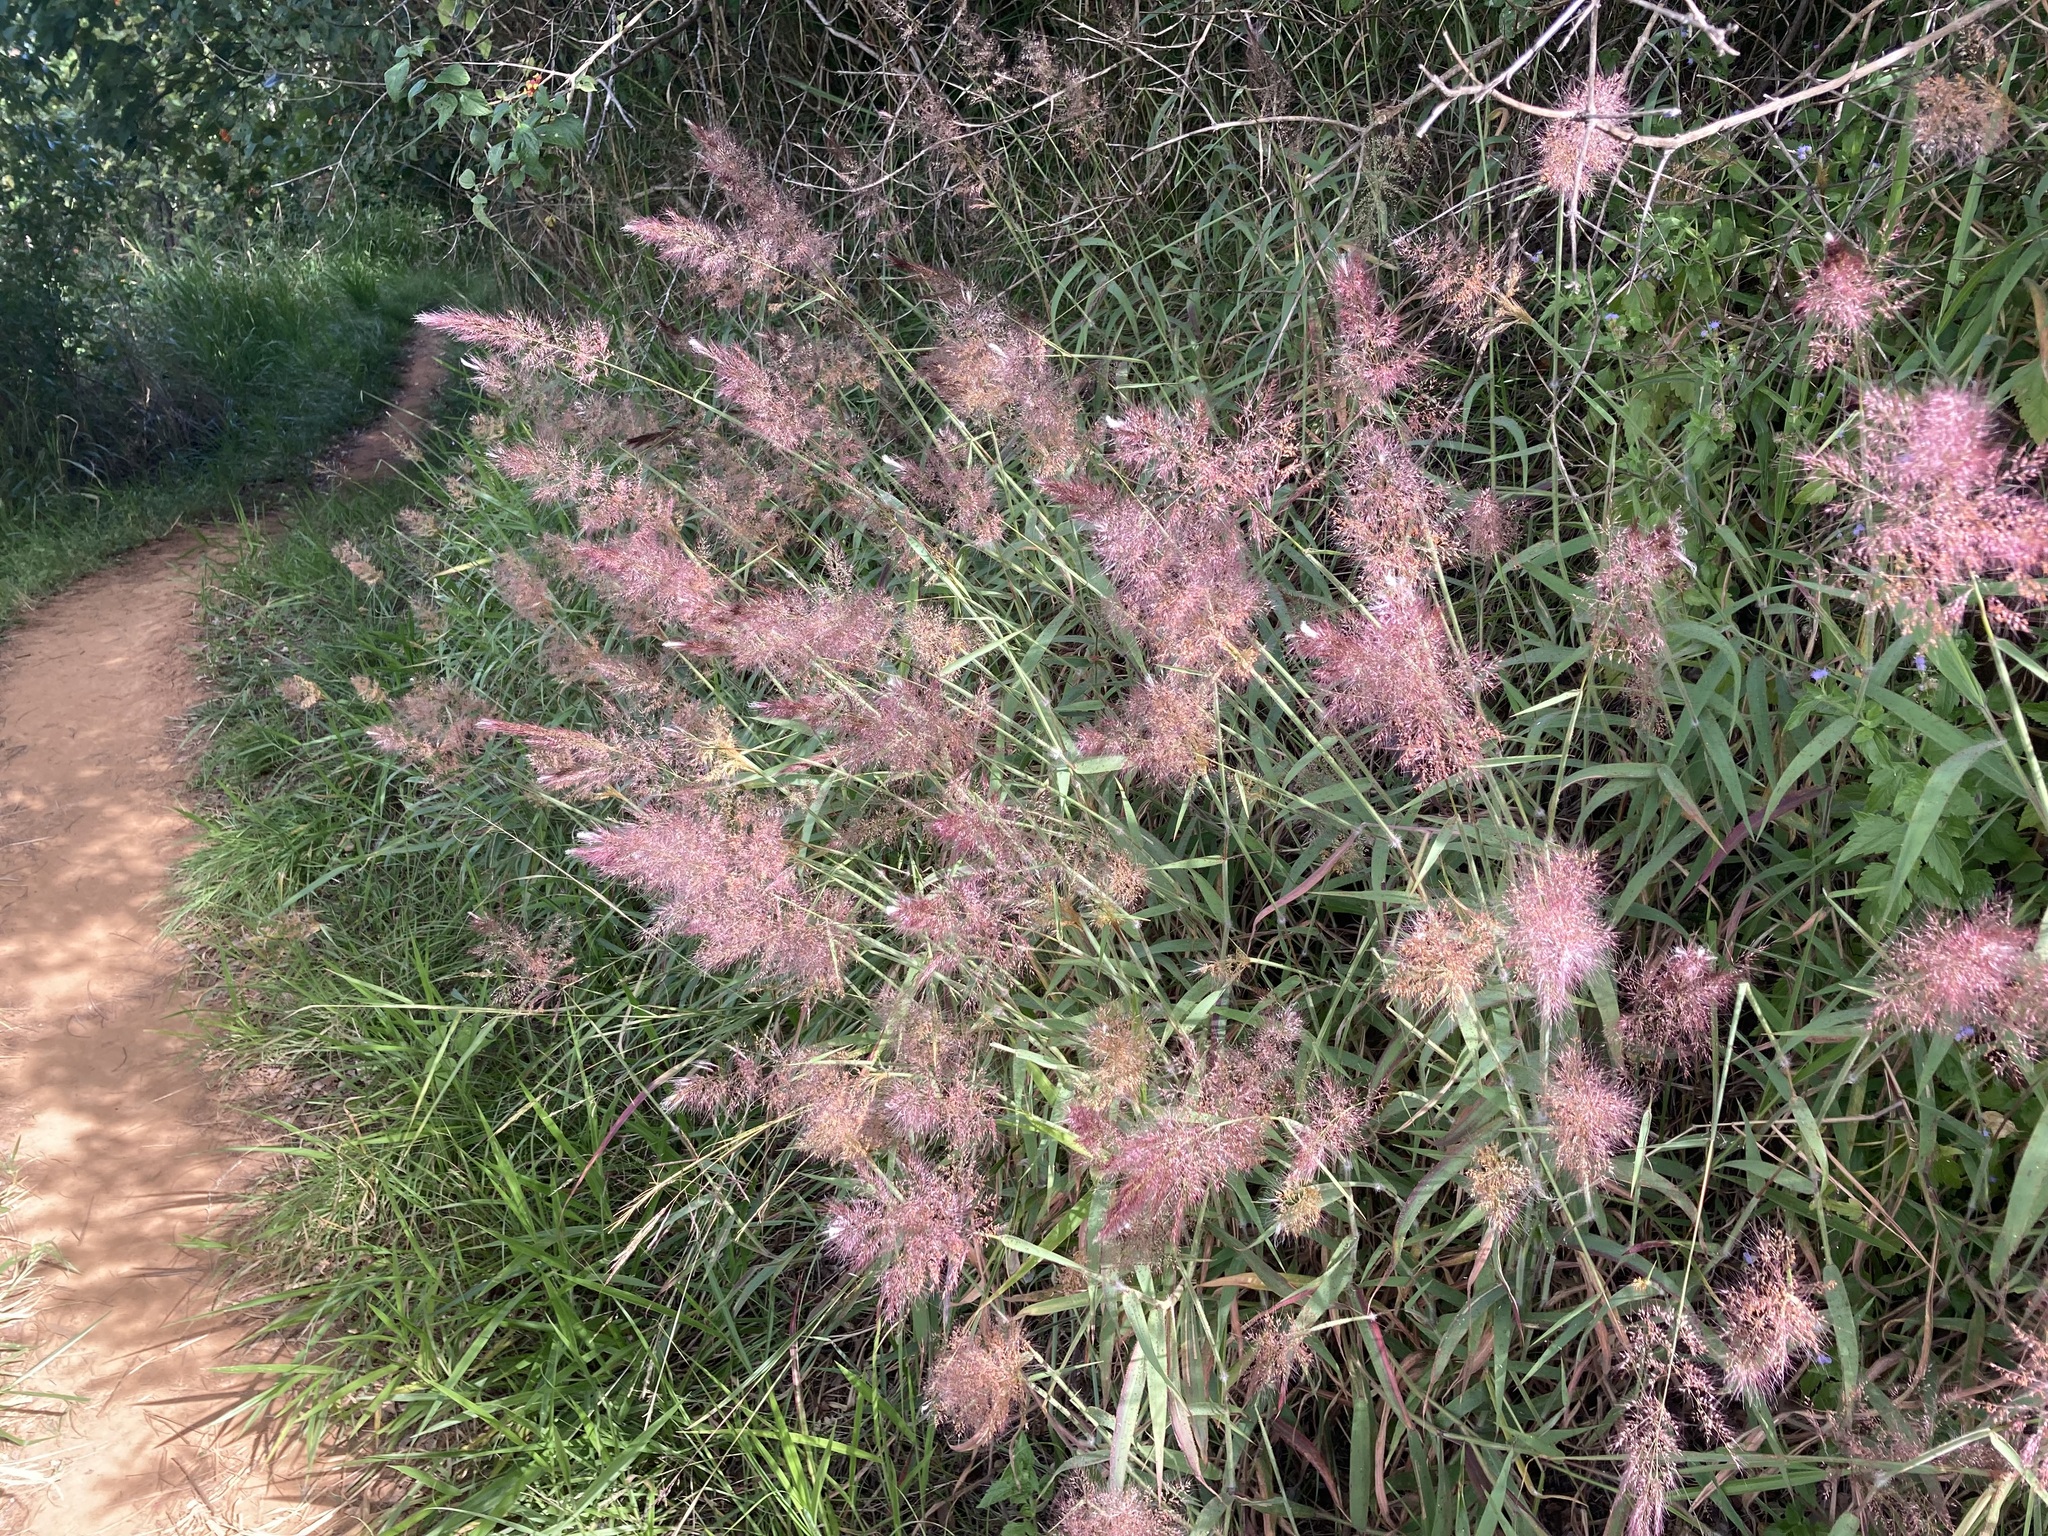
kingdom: Plantae
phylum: Tracheophyta
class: Liliopsida
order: Poales
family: Poaceae
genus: Melinis
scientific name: Melinis minutiflora
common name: Molassesgrass
